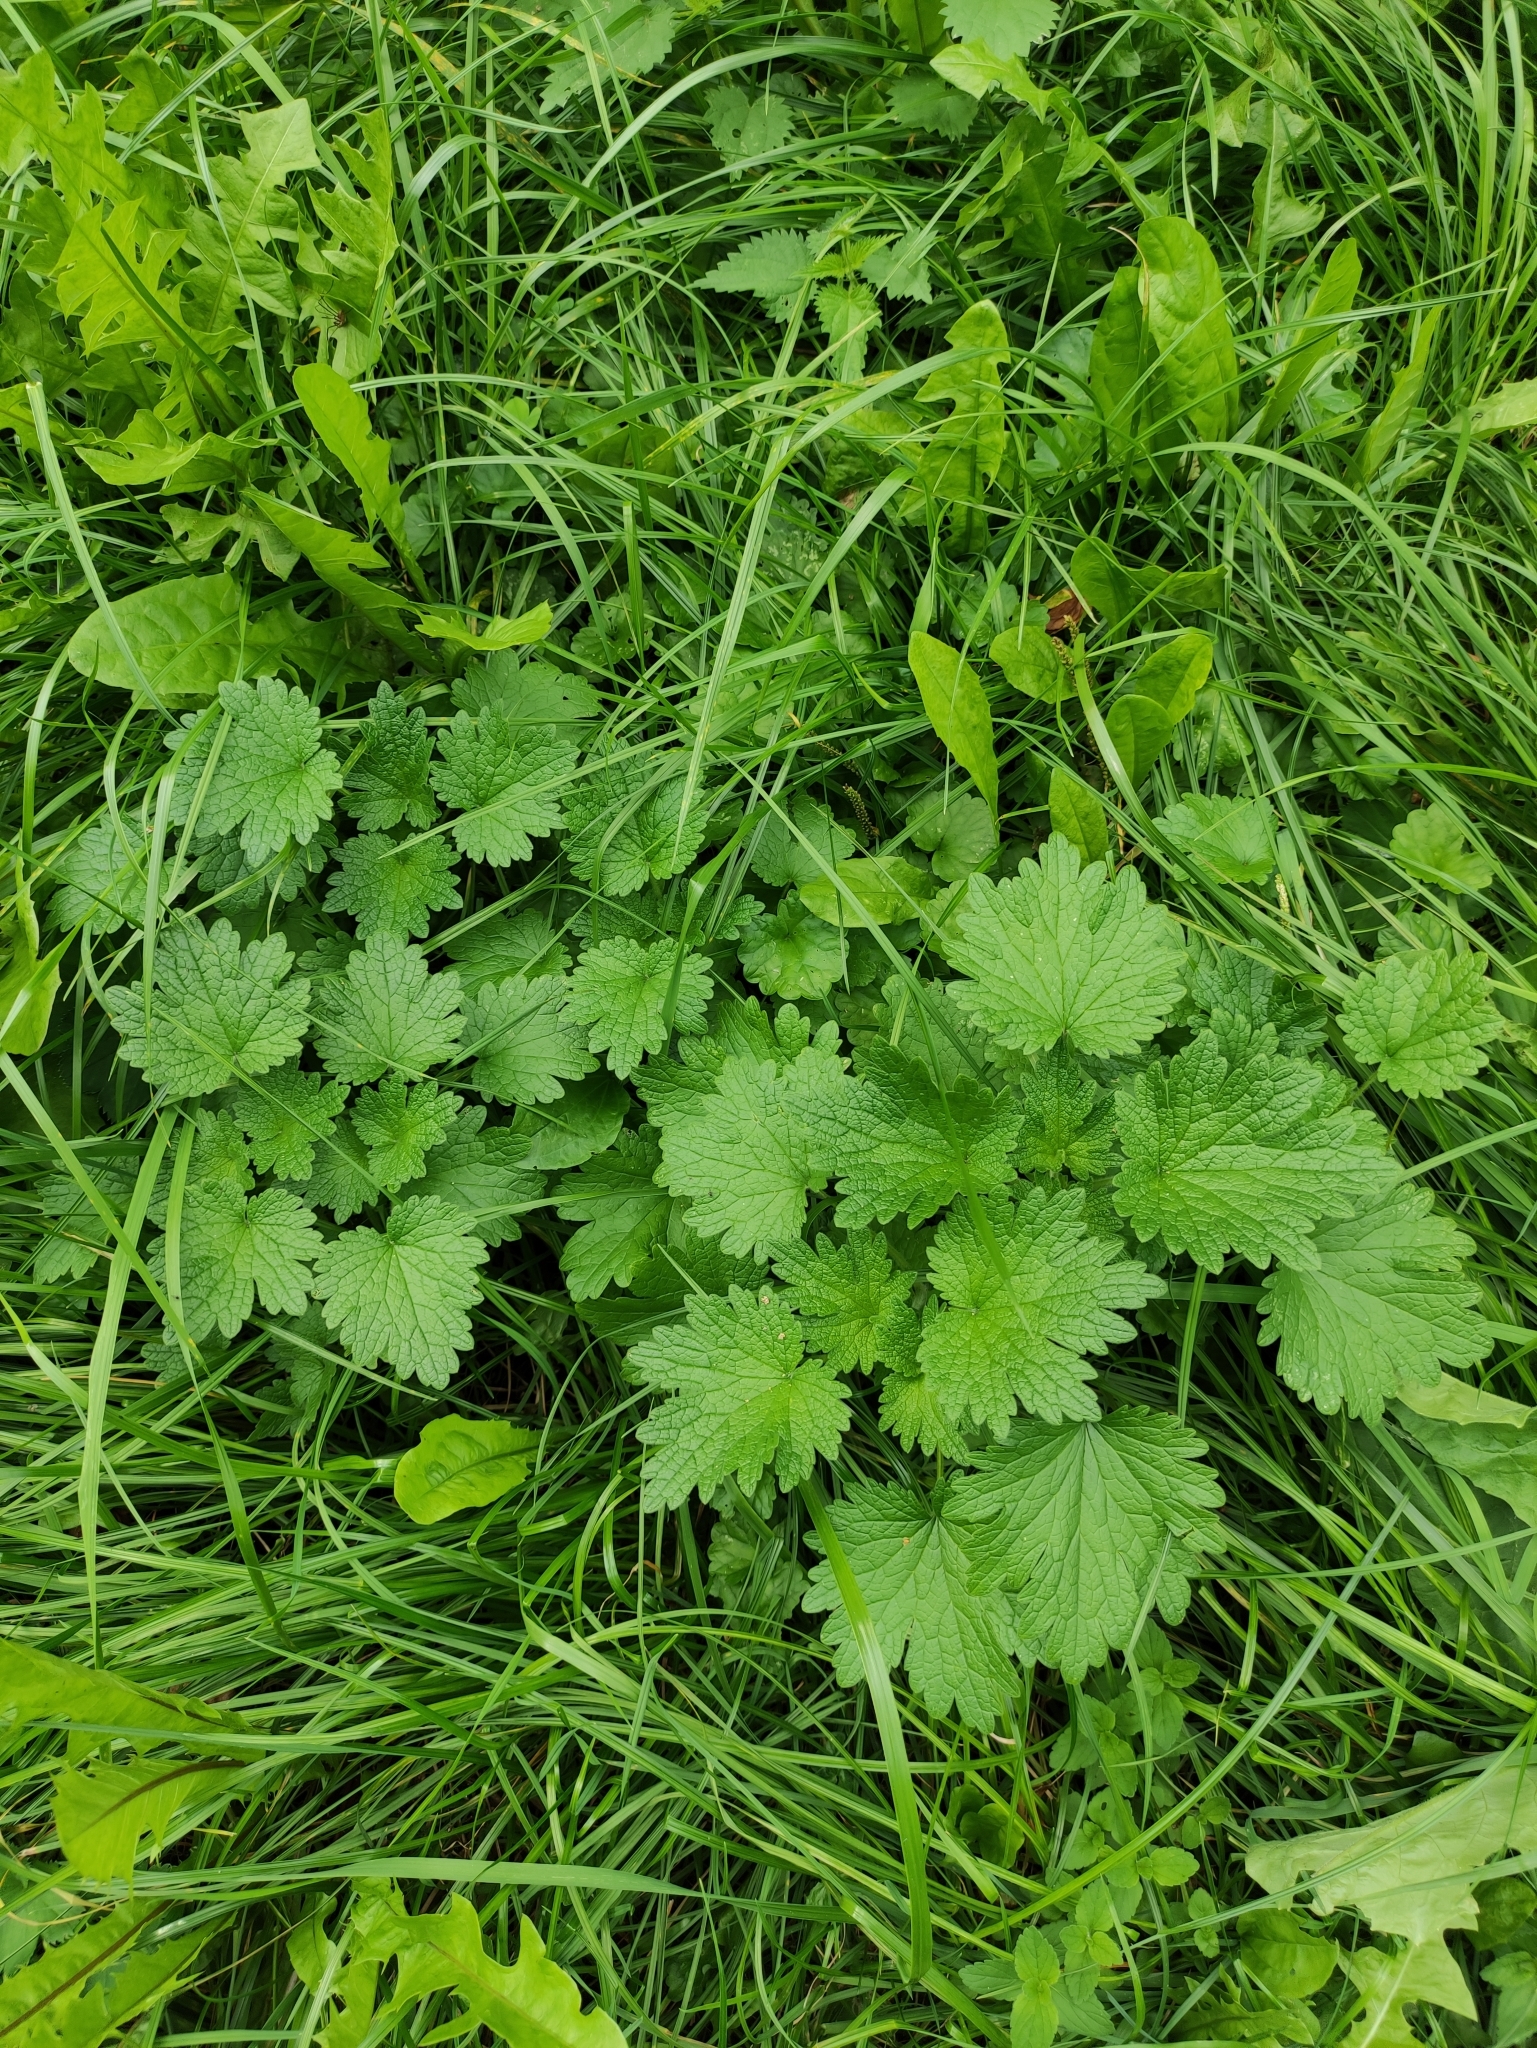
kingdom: Plantae
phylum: Tracheophyta
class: Magnoliopsida
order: Lamiales
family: Lamiaceae
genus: Leonurus
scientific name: Leonurus quinquelobatus
